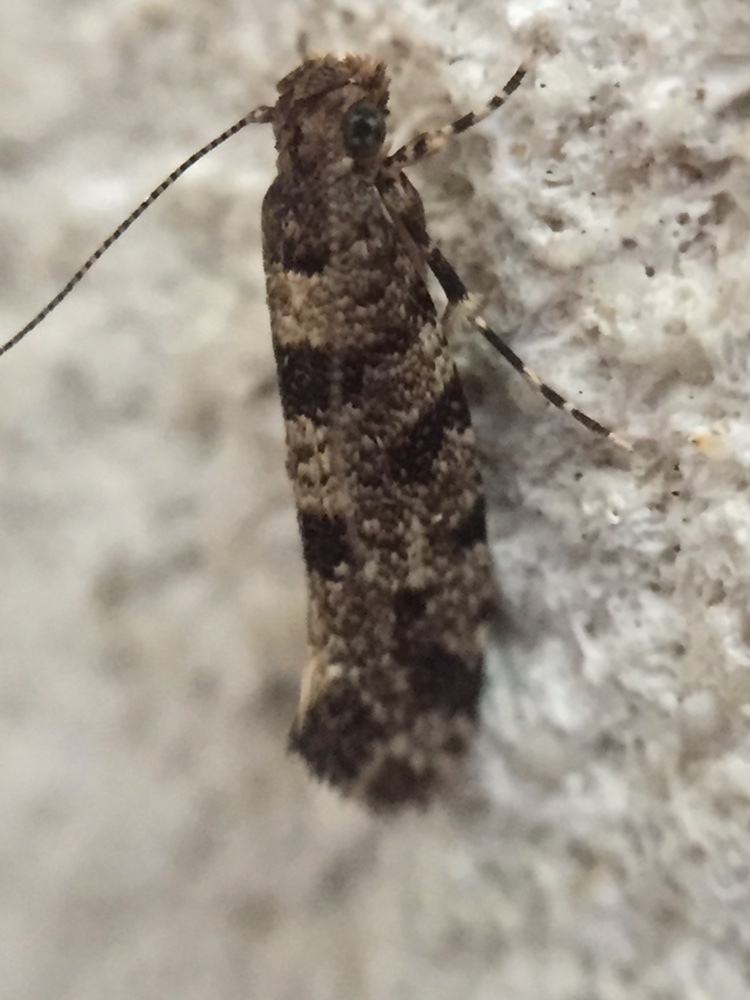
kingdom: Animalia
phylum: Arthropoda
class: Insecta
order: Lepidoptera
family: Tineidae
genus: Parochmastis
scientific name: Parochmastis hilderi
